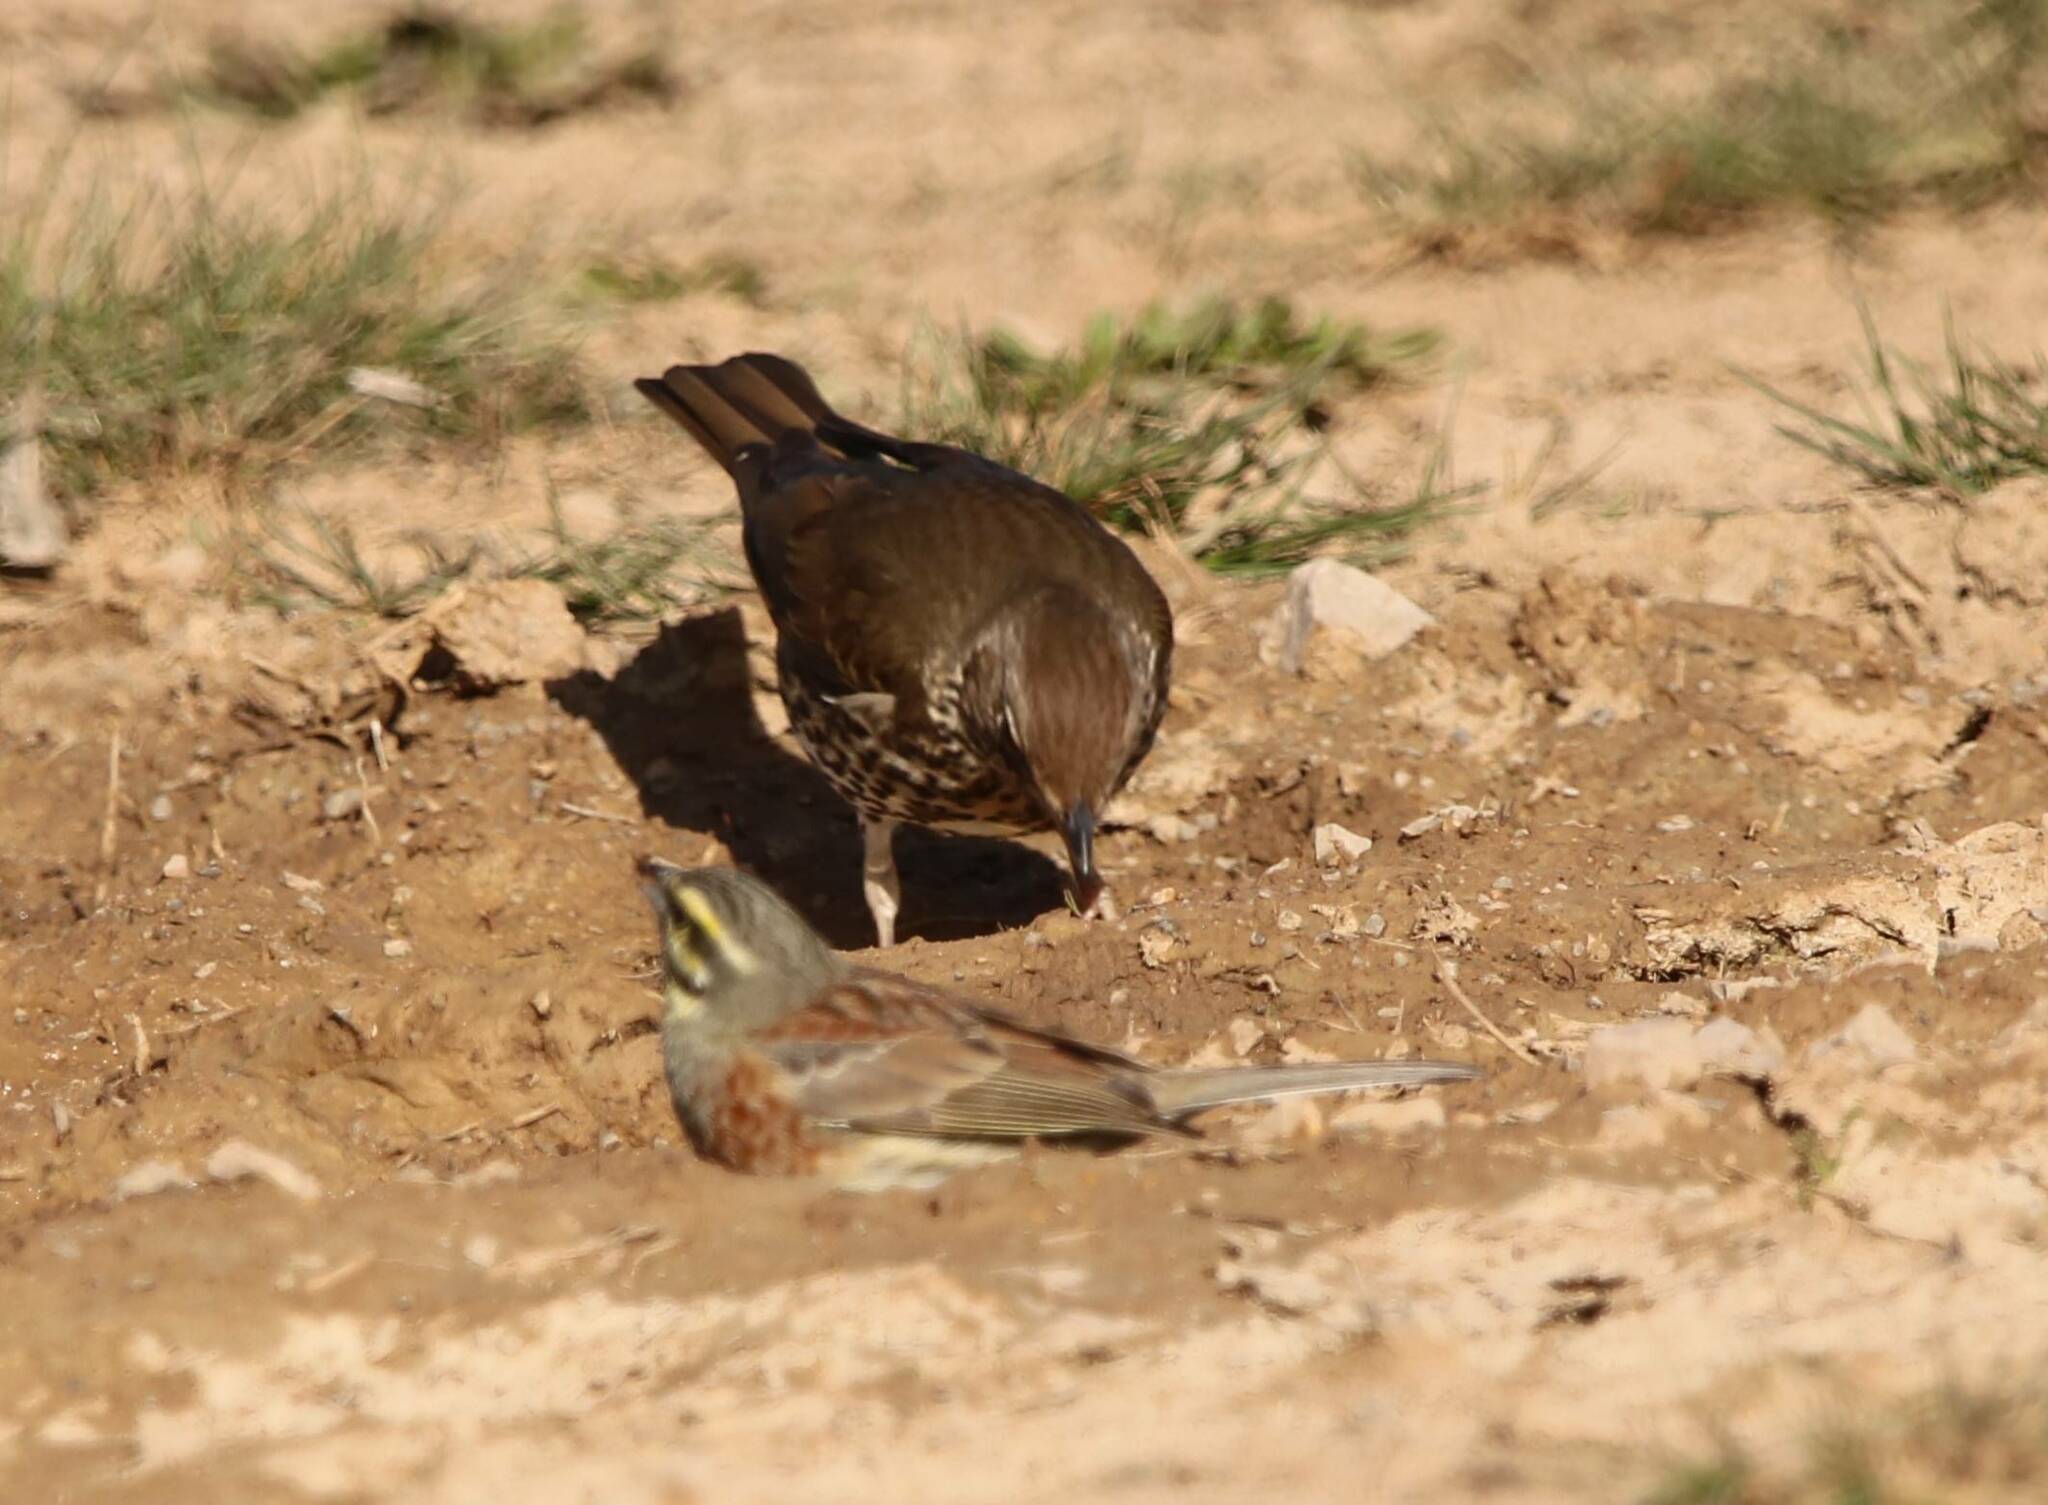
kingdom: Animalia
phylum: Chordata
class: Aves
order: Passeriformes
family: Turdidae
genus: Turdus
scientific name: Turdus philomelos
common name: Song thrush
